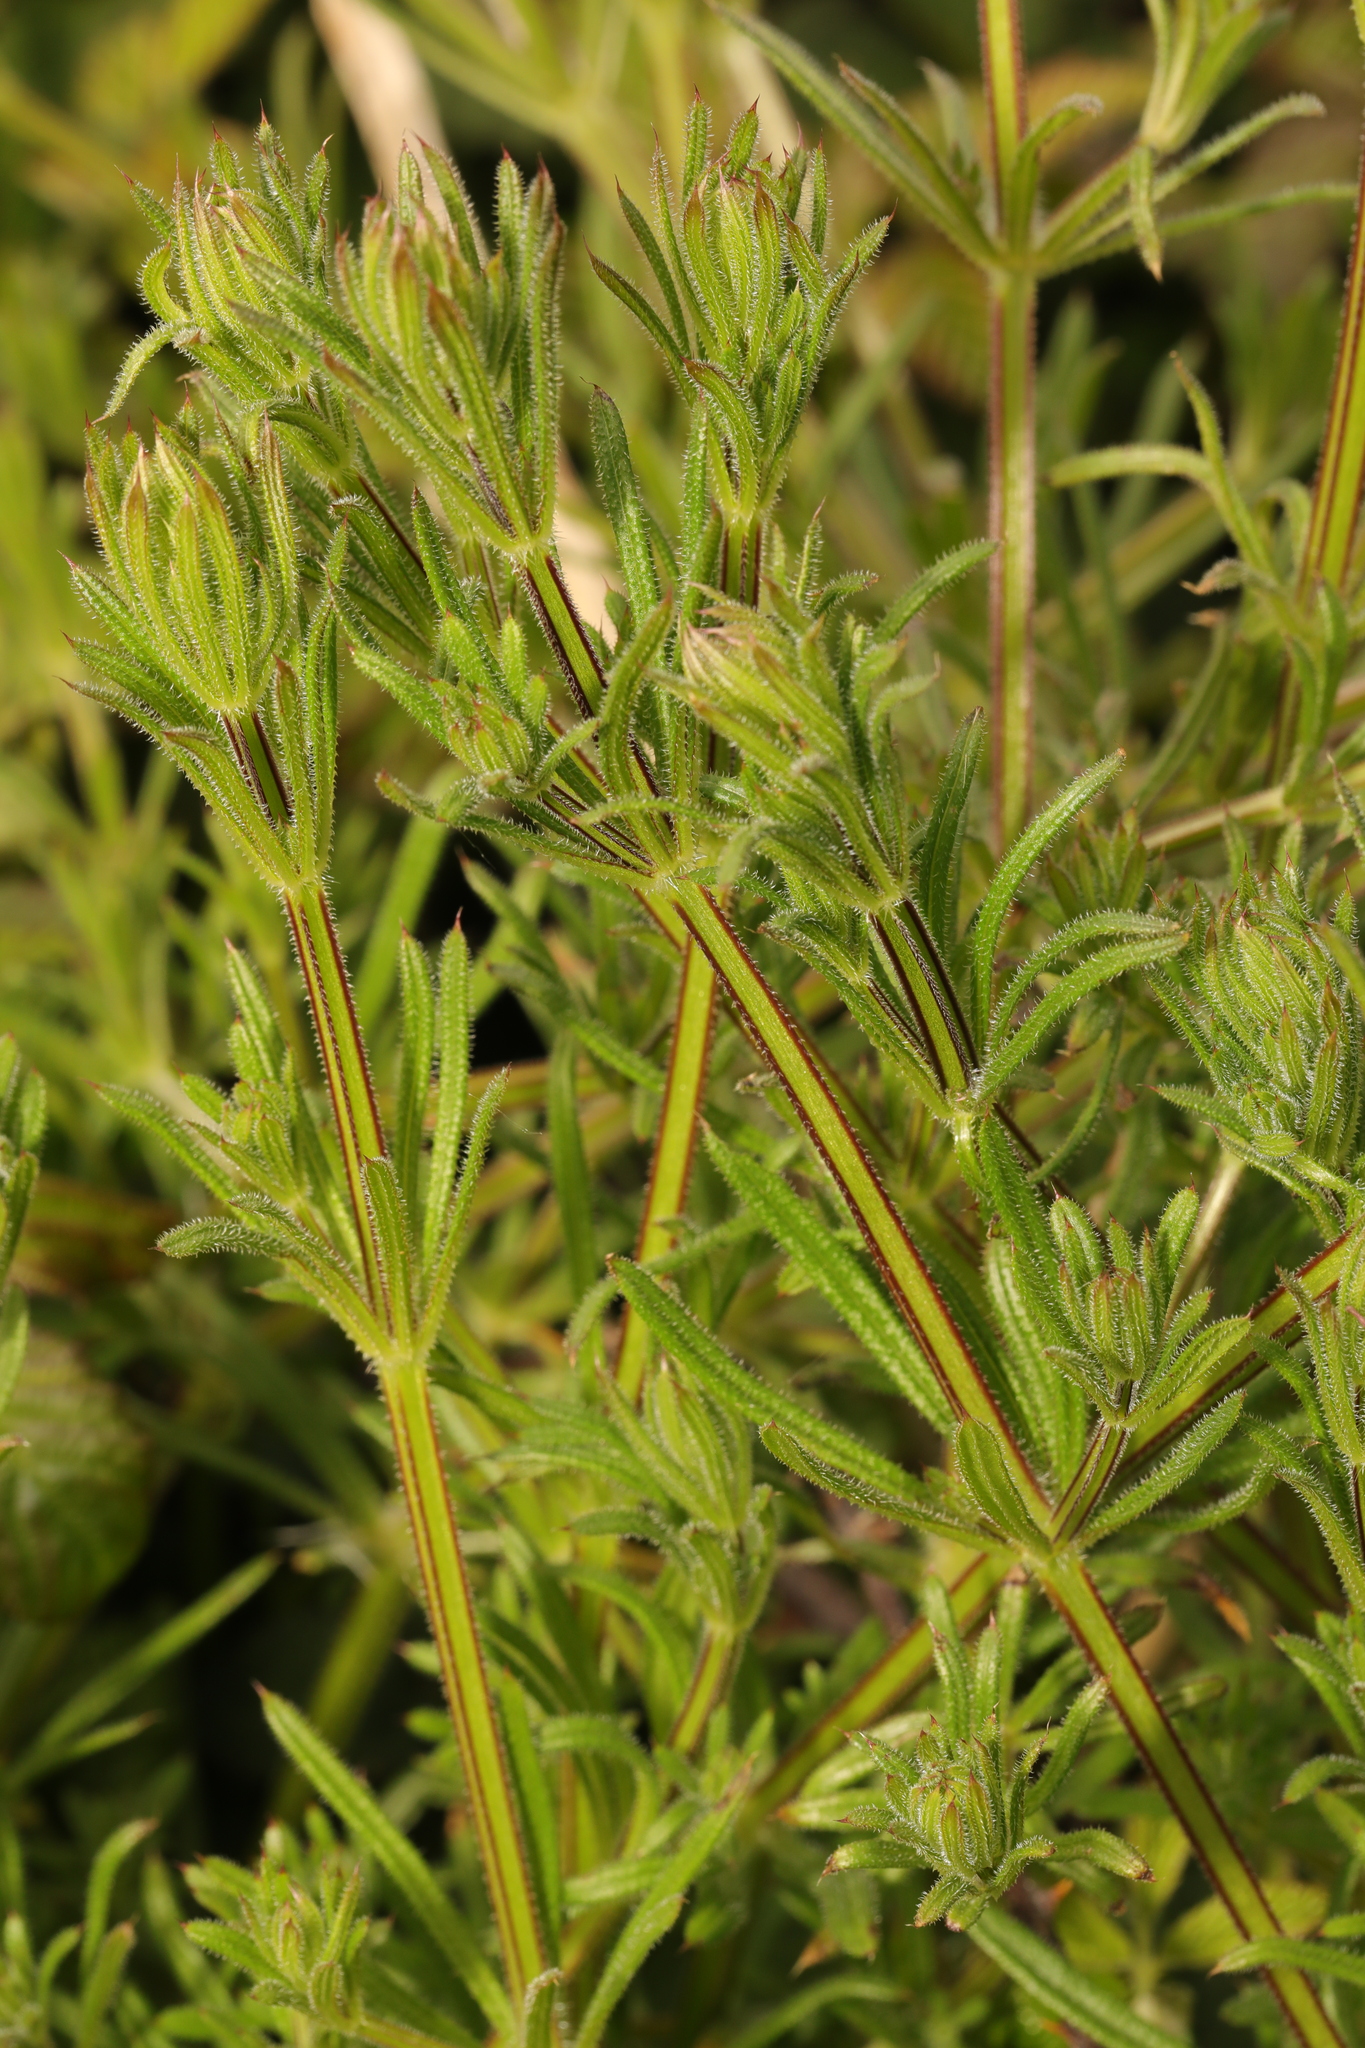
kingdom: Plantae
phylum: Tracheophyta
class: Magnoliopsida
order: Gentianales
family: Rubiaceae
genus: Galium
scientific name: Galium aparine
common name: Cleavers
